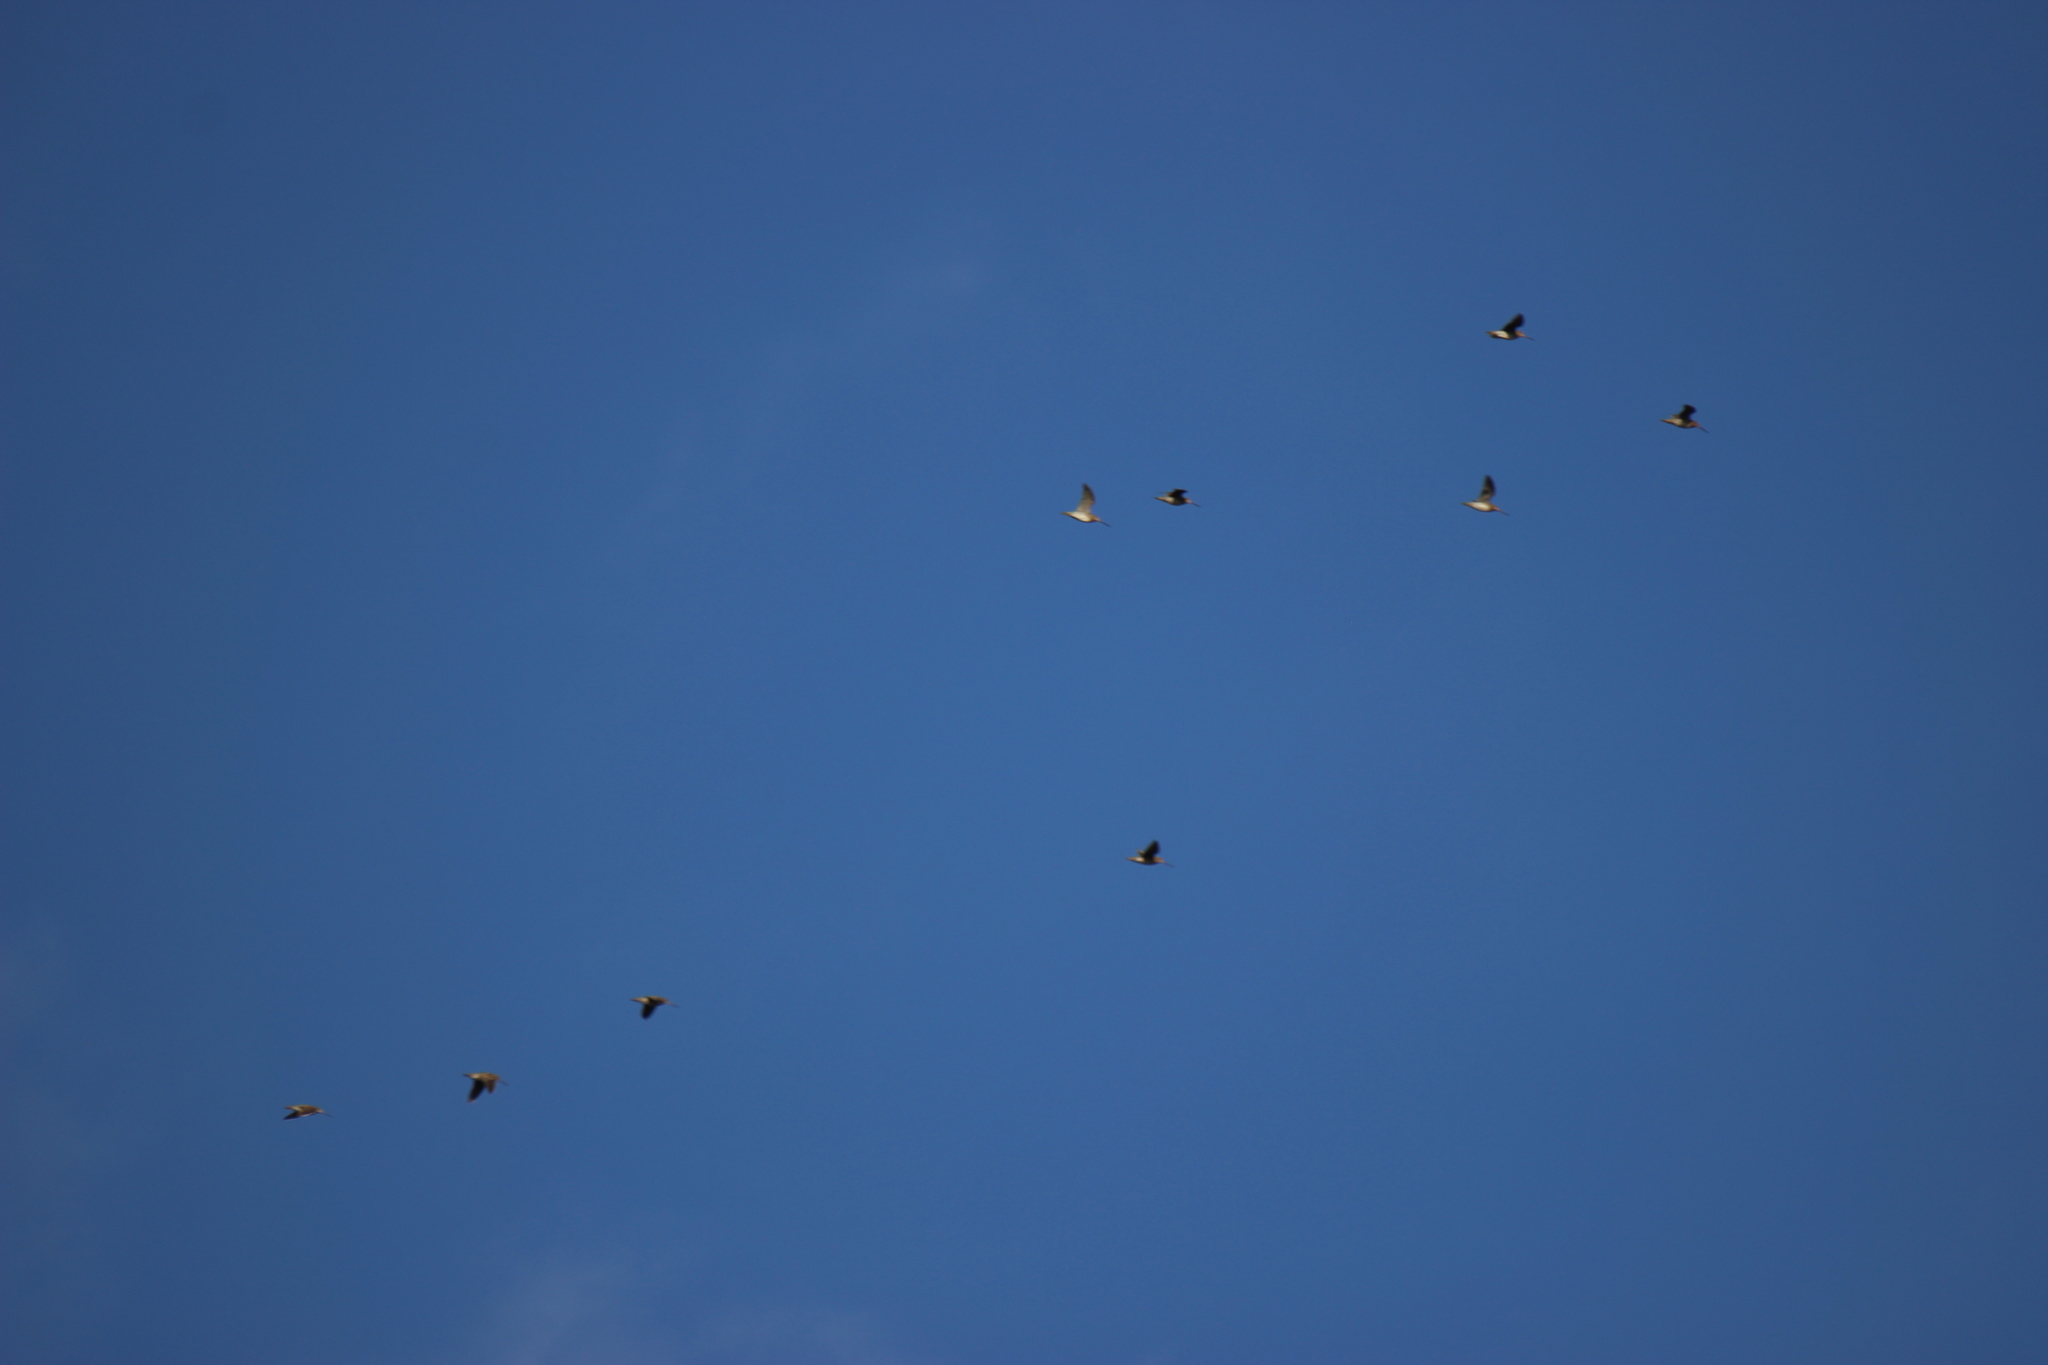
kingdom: Animalia
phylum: Chordata
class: Aves
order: Charadriiformes
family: Scolopacidae
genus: Gallinago
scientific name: Gallinago delicata
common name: Wilson's snipe
